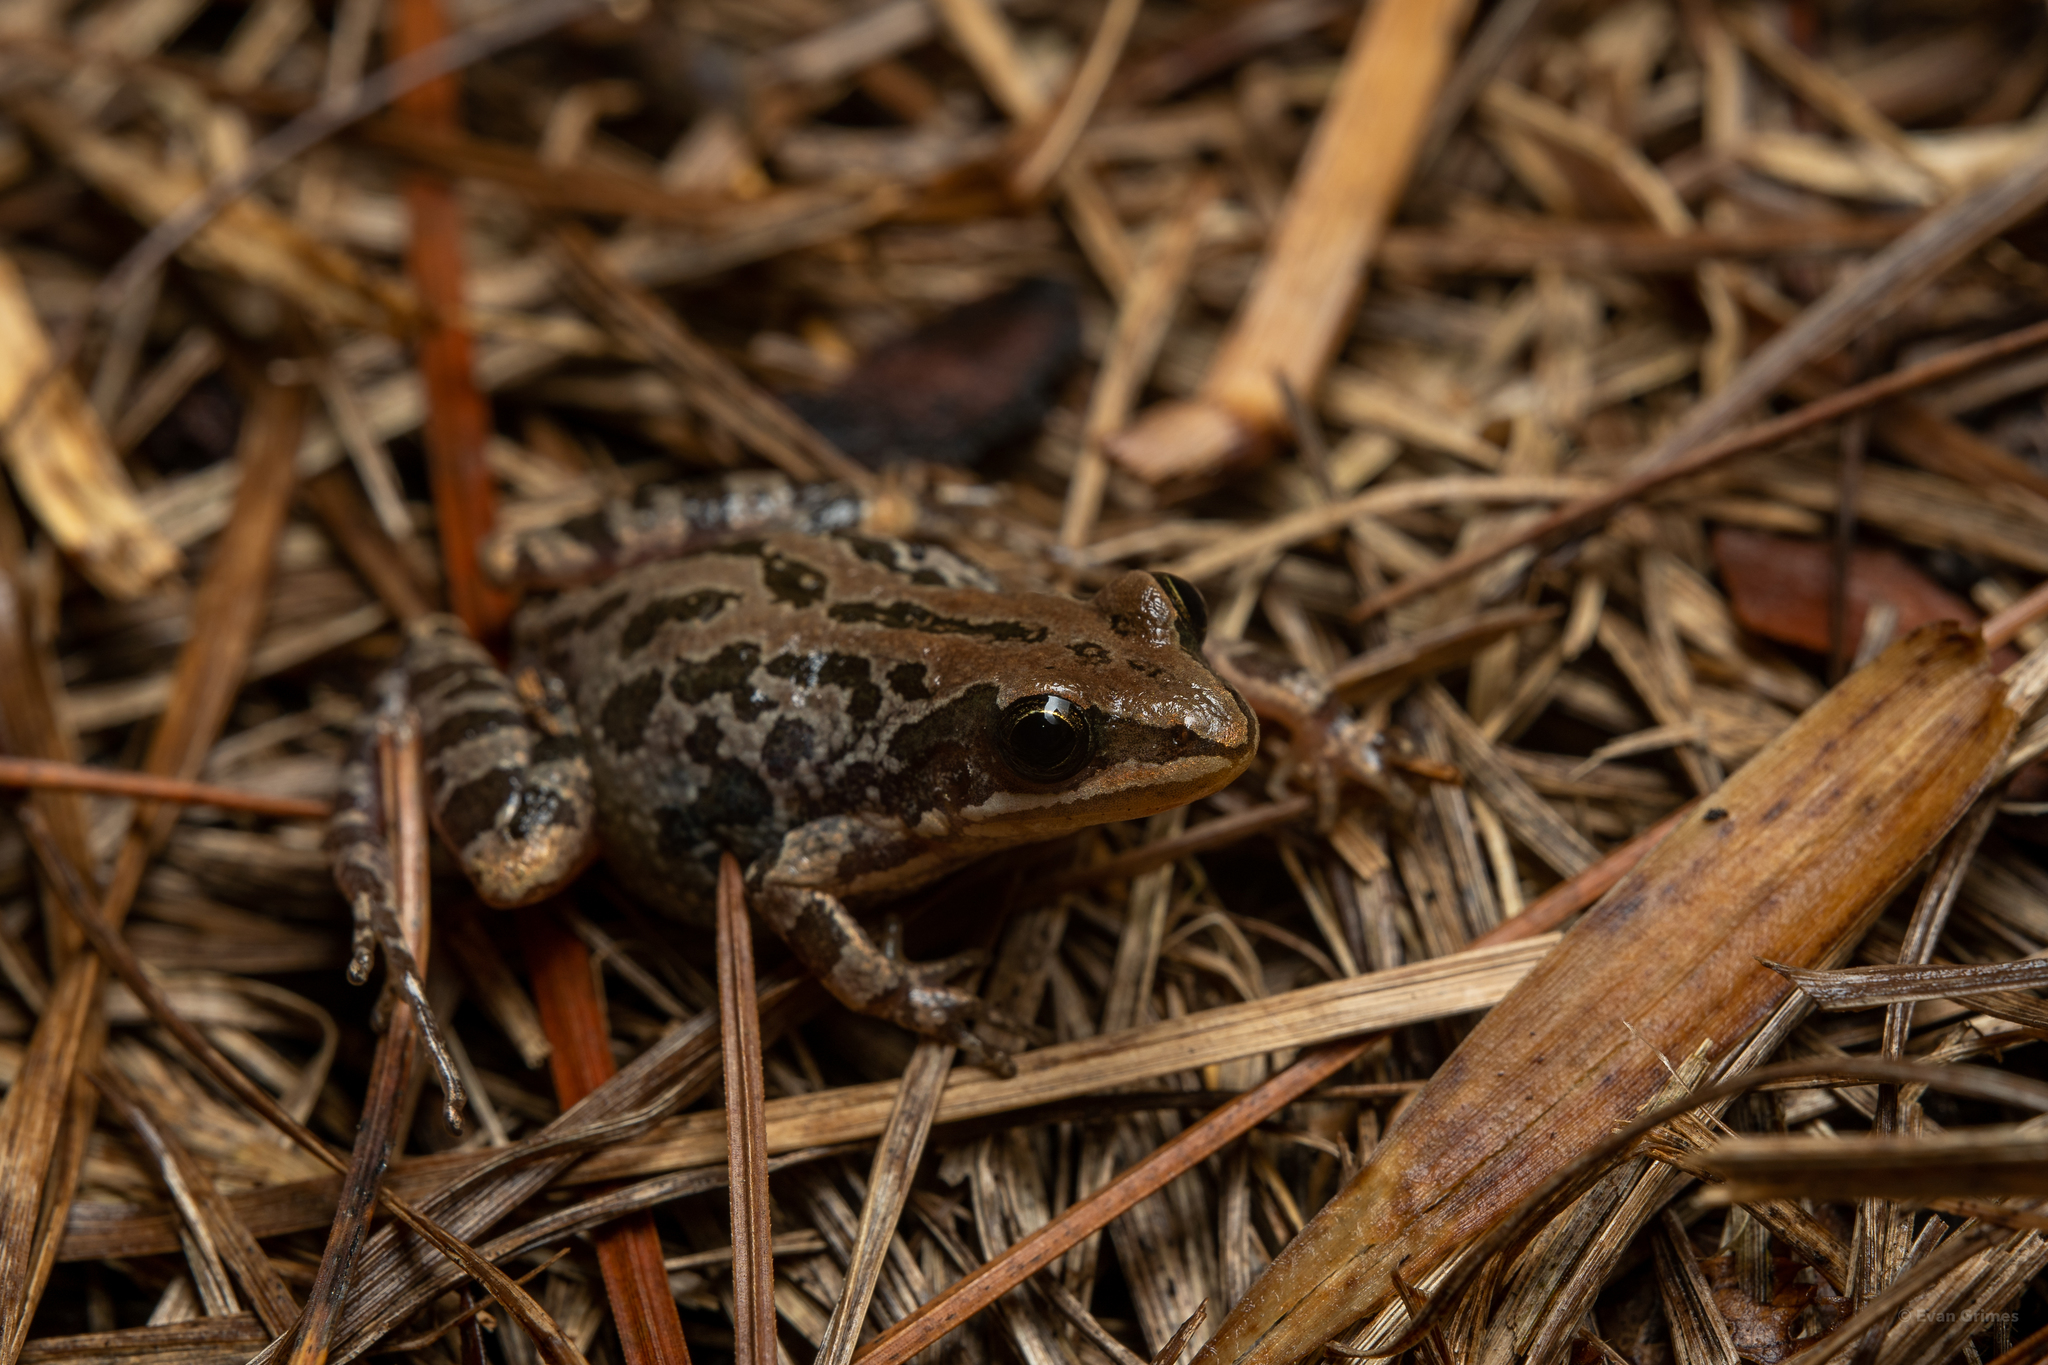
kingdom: Animalia
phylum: Chordata
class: Amphibia
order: Anura
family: Hylidae
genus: Pseudacris
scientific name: Pseudacris nigrita
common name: Southern chorus frog
